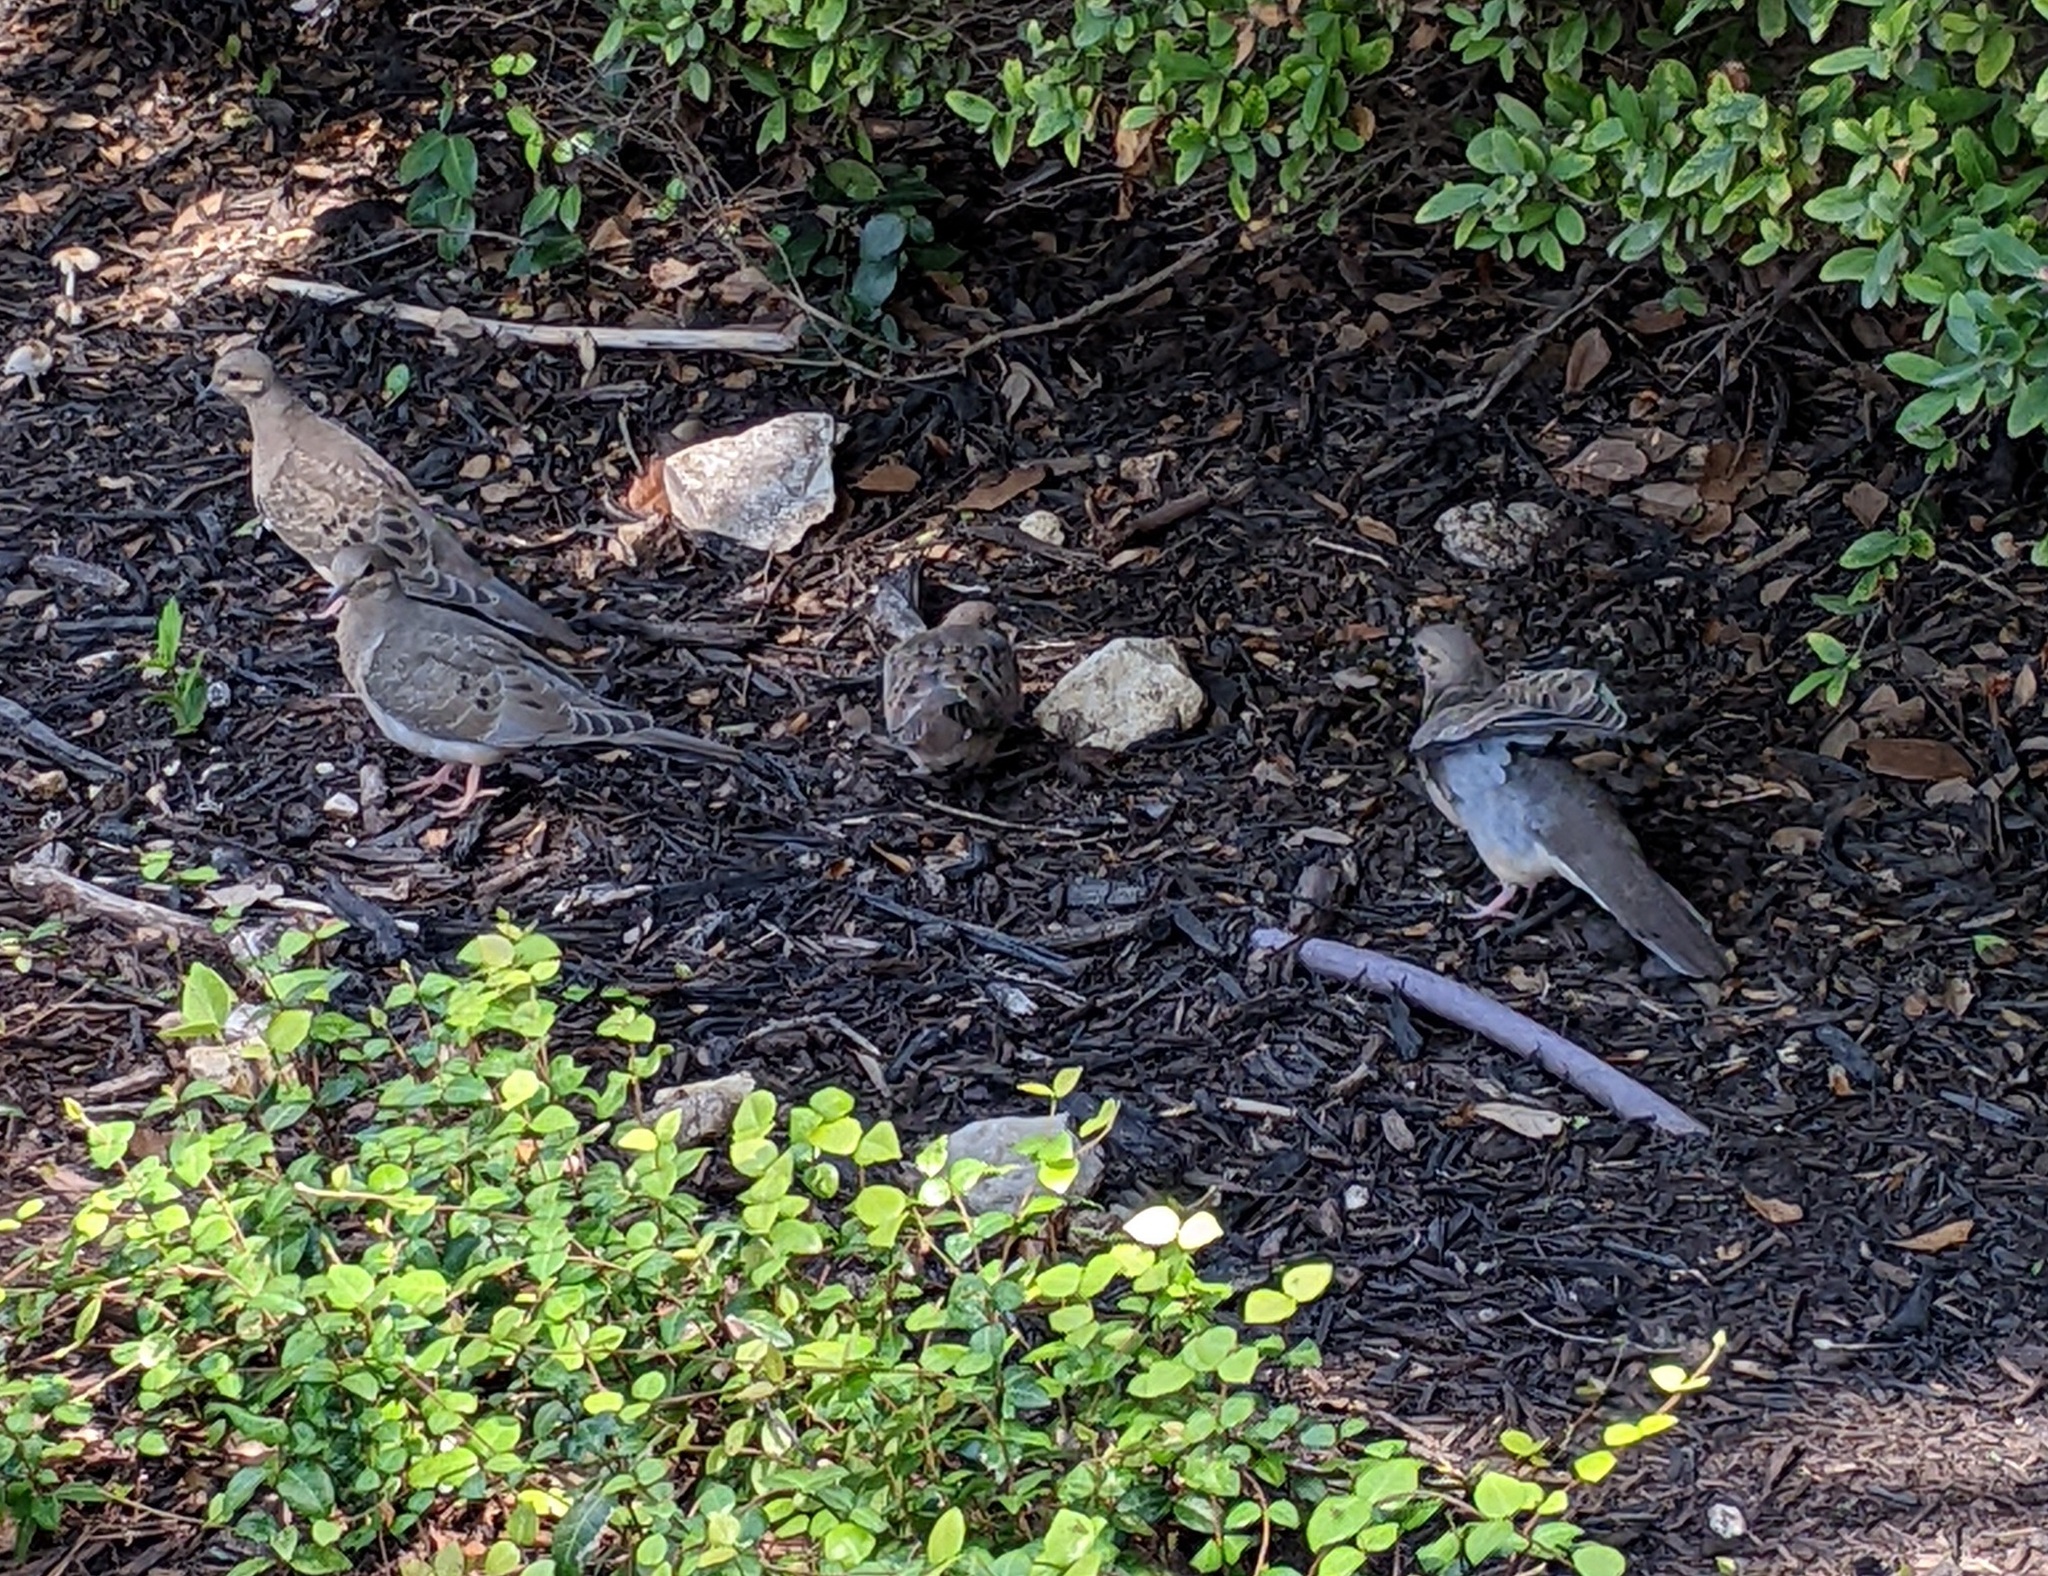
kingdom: Animalia
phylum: Chordata
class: Aves
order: Columbiformes
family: Columbidae
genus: Zenaida
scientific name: Zenaida macroura
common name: Mourning dove
